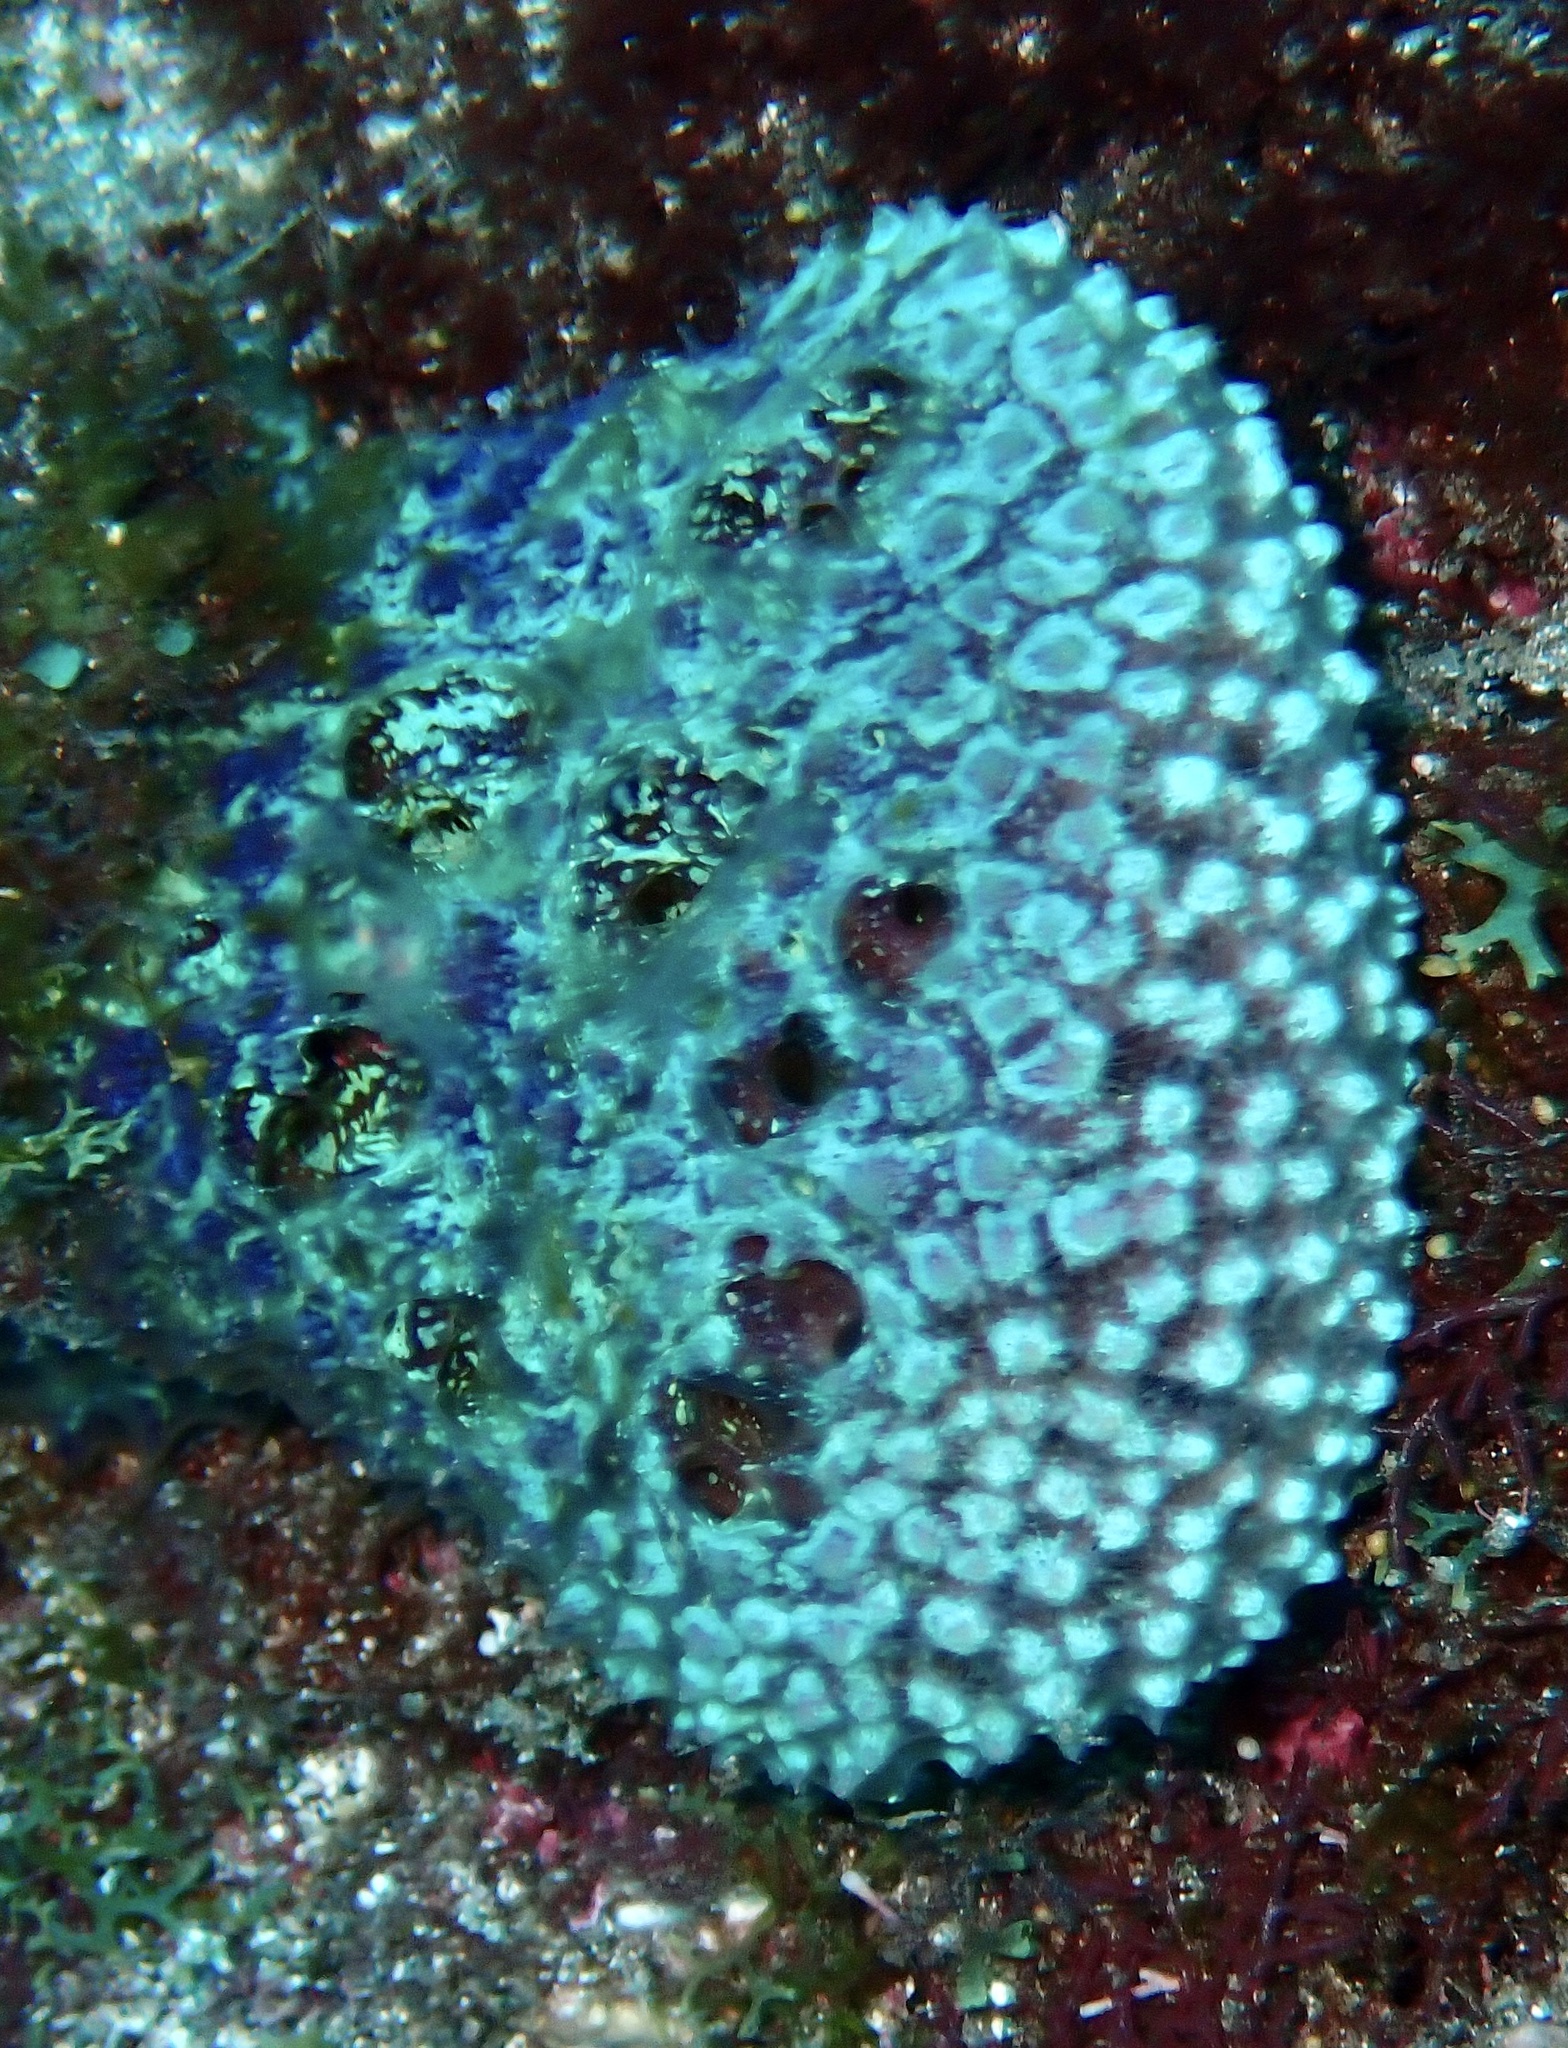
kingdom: Animalia
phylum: Porifera
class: Demospongiae
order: Poecilosclerida
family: Mycalidae
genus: Mycale
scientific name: Mycale laxissima
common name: Strawberry vase sponge
